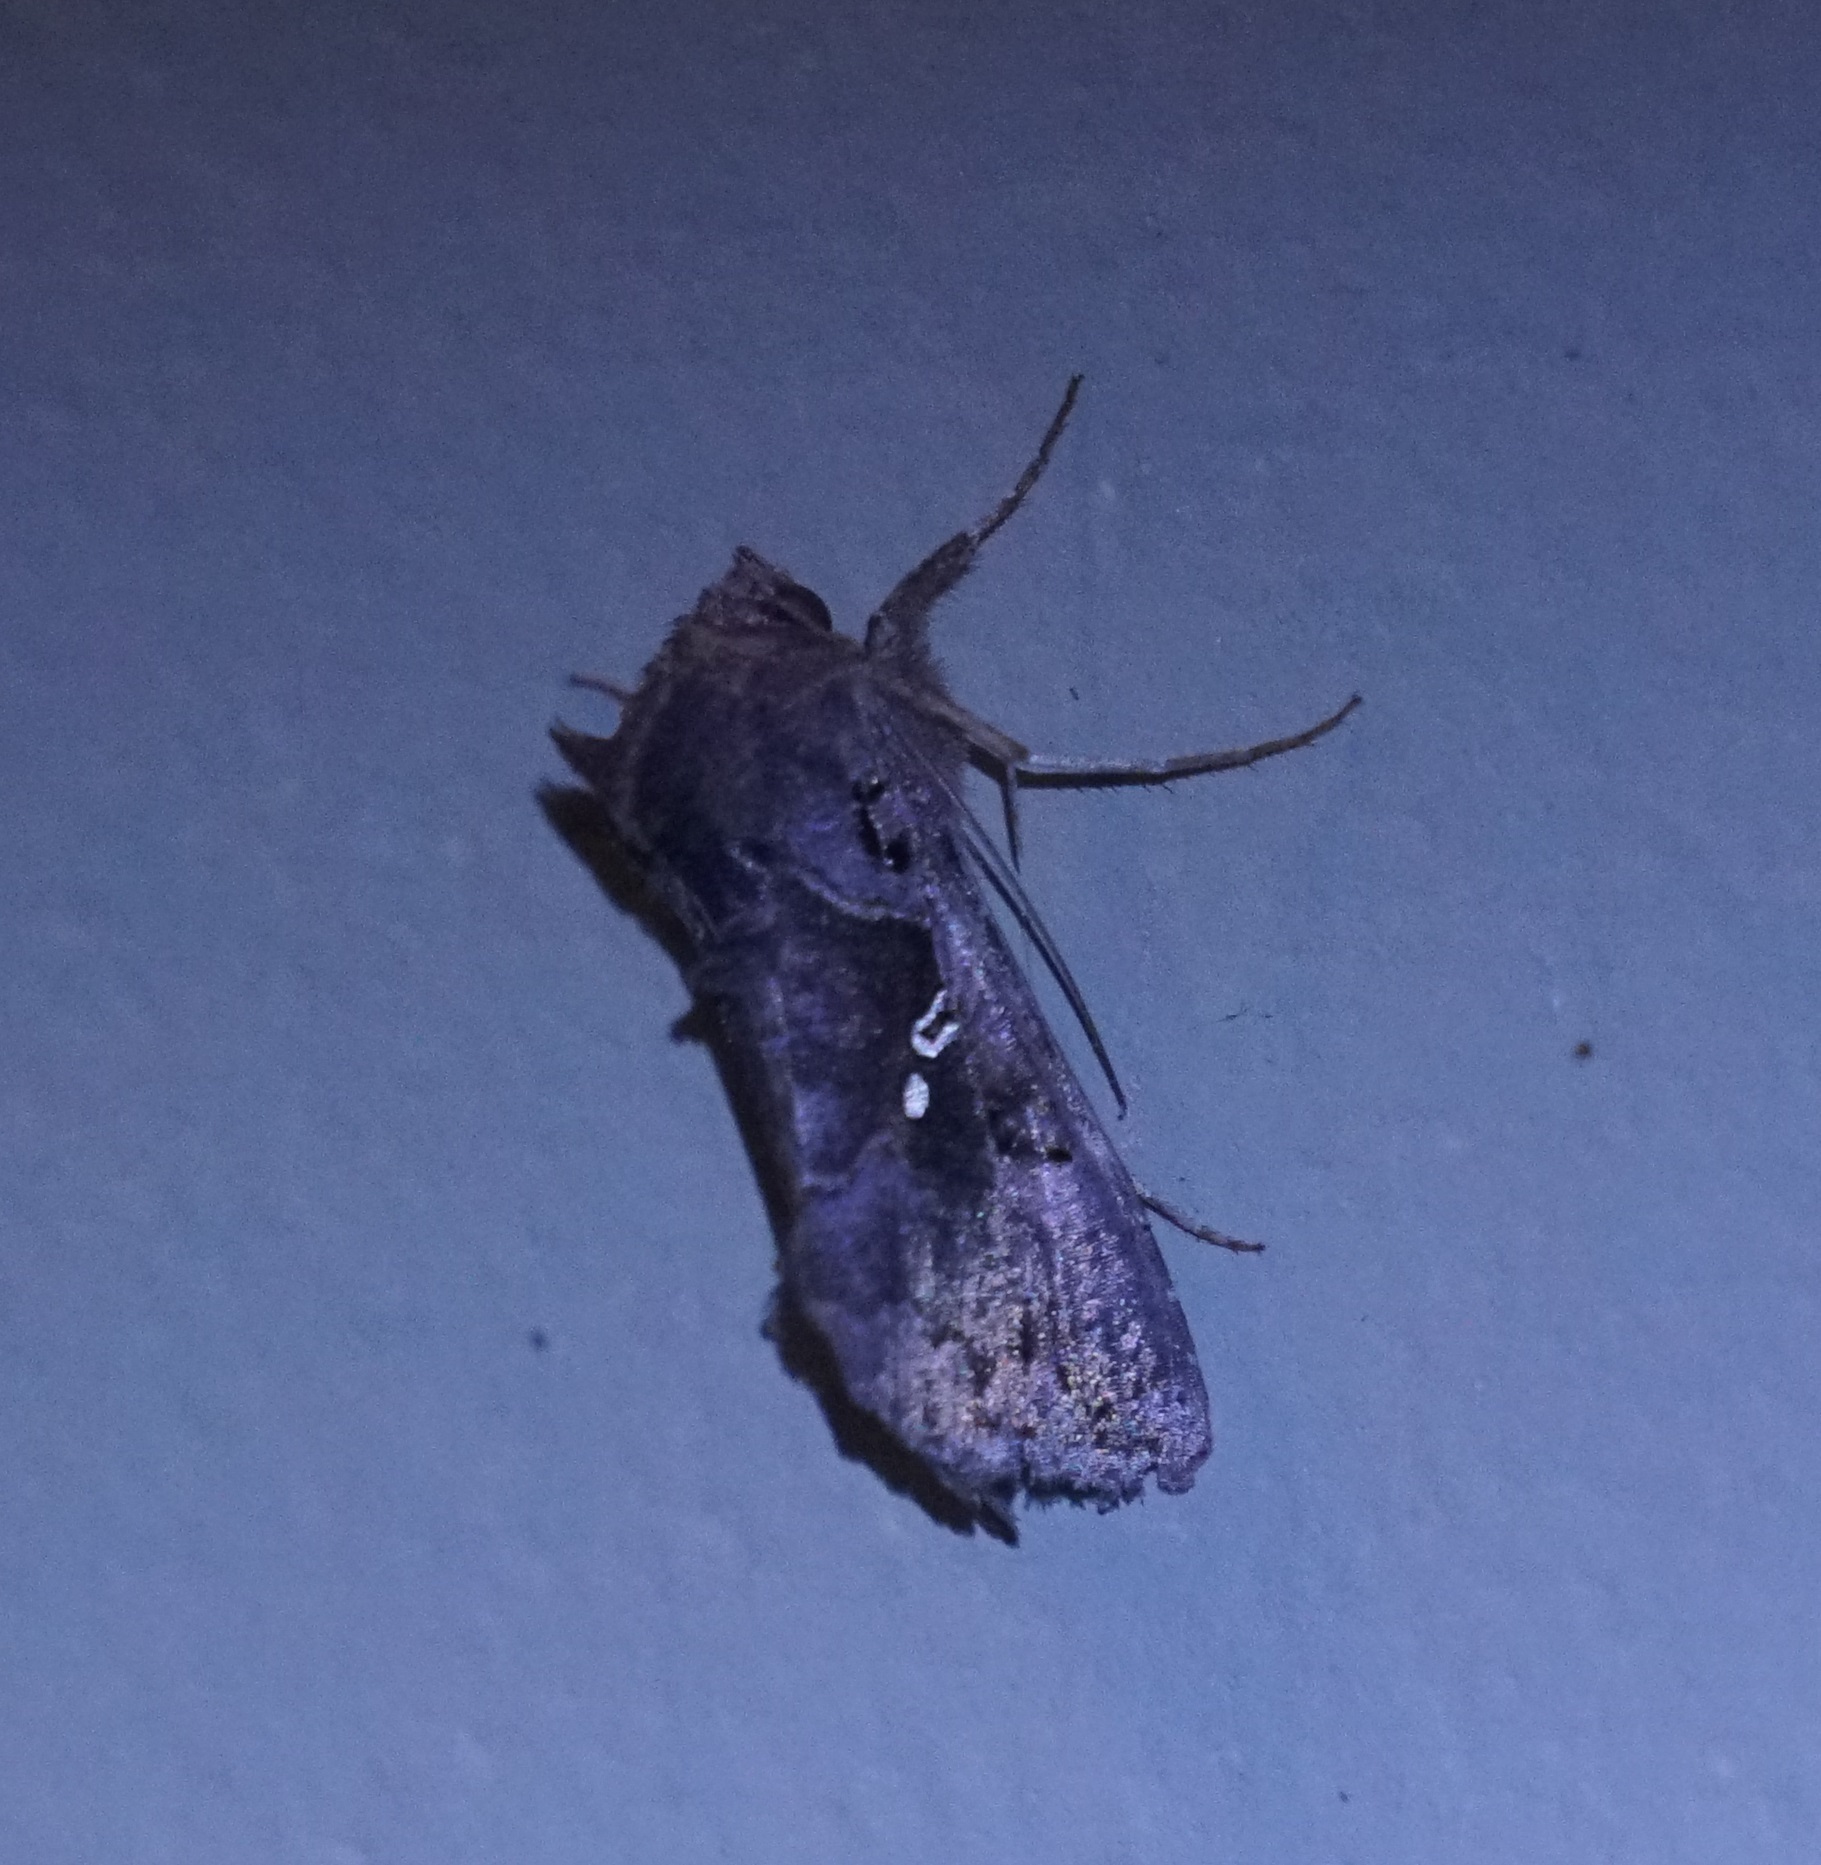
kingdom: Animalia
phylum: Arthropoda
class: Insecta
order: Lepidoptera
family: Noctuidae
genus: Argyrogramma
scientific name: Argyrogramma signata
